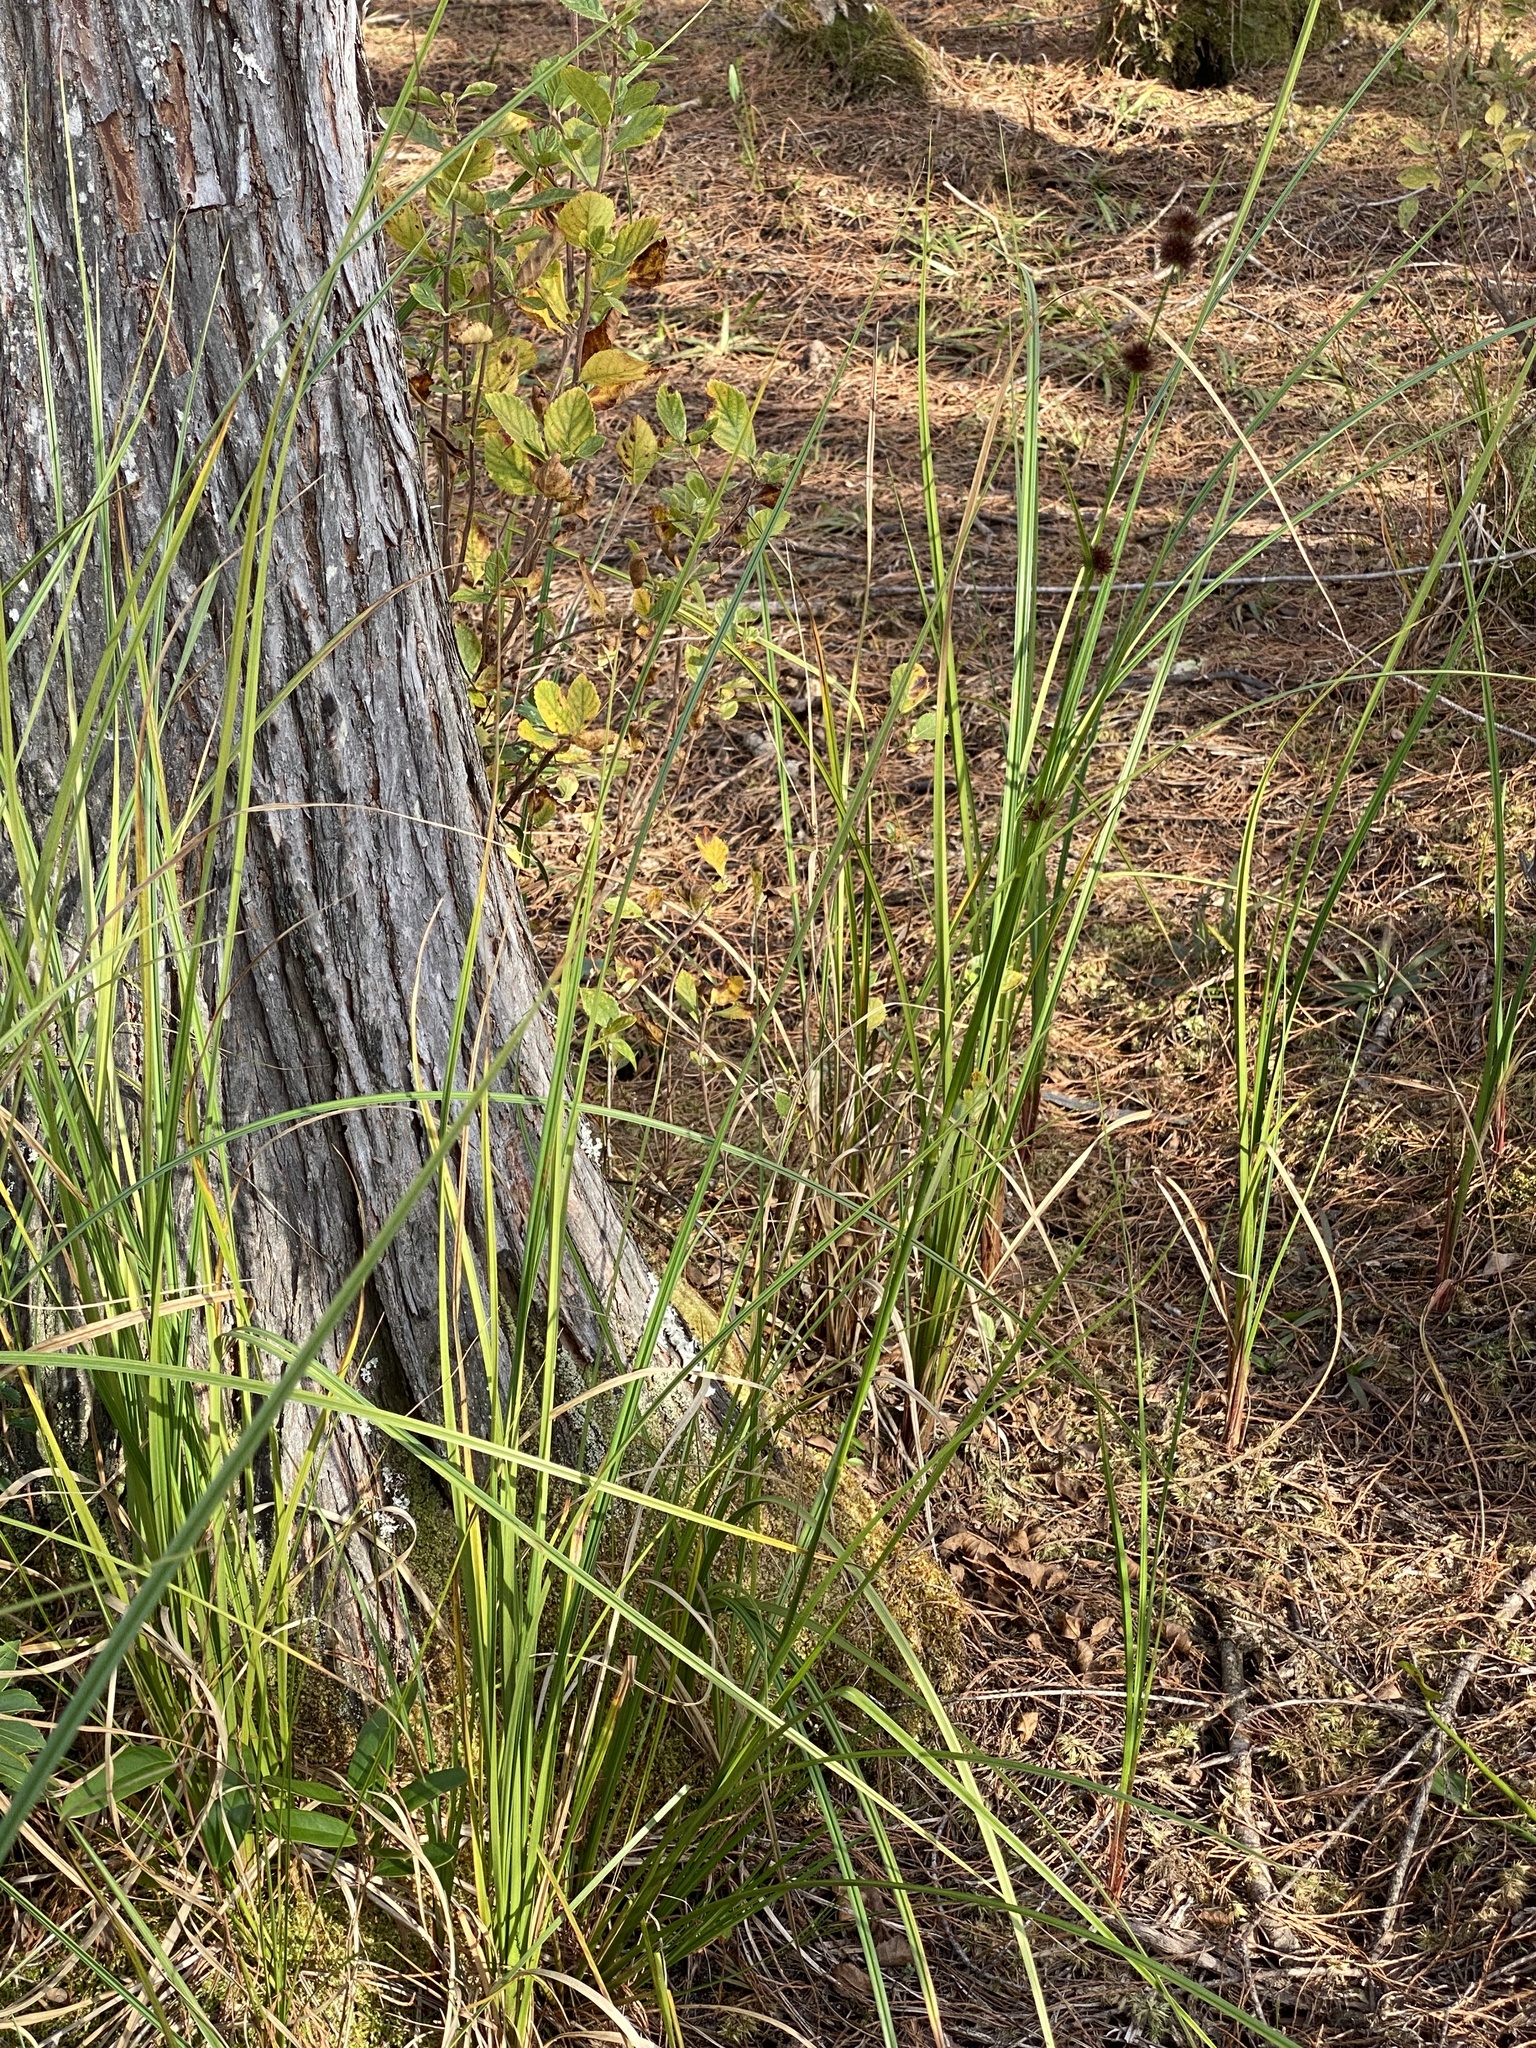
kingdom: Plantae
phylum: Tracheophyta
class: Liliopsida
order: Poales
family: Cyperaceae
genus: Rhynchospora
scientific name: Rhynchospora cephalantha
